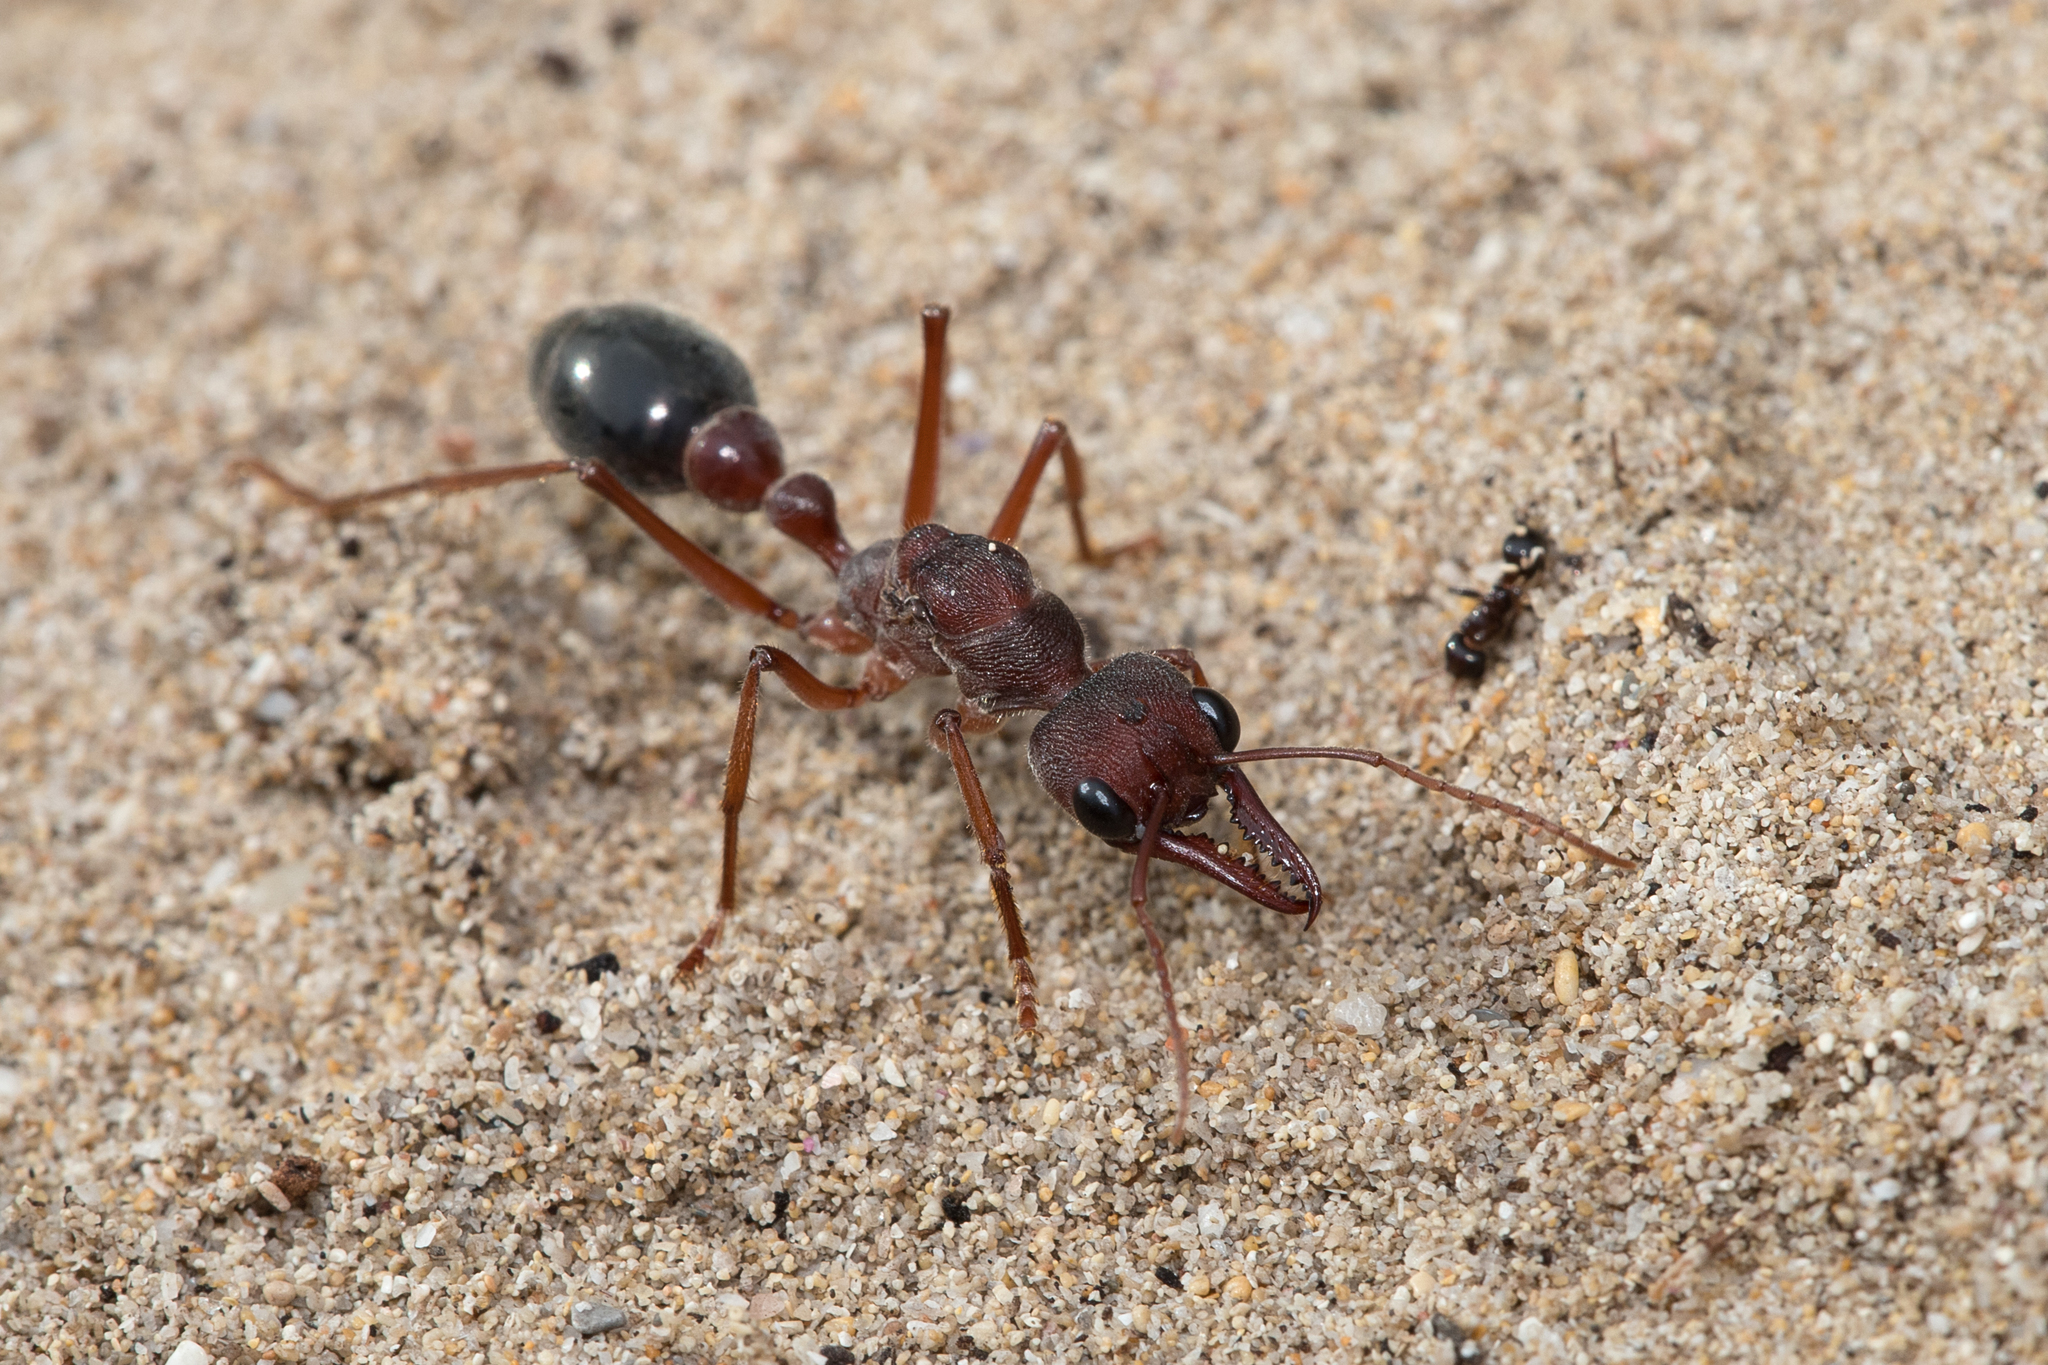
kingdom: Animalia
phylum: Arthropoda
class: Insecta
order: Hymenoptera
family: Formicidae
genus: Myrmecia
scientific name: Myrmecia forficata
